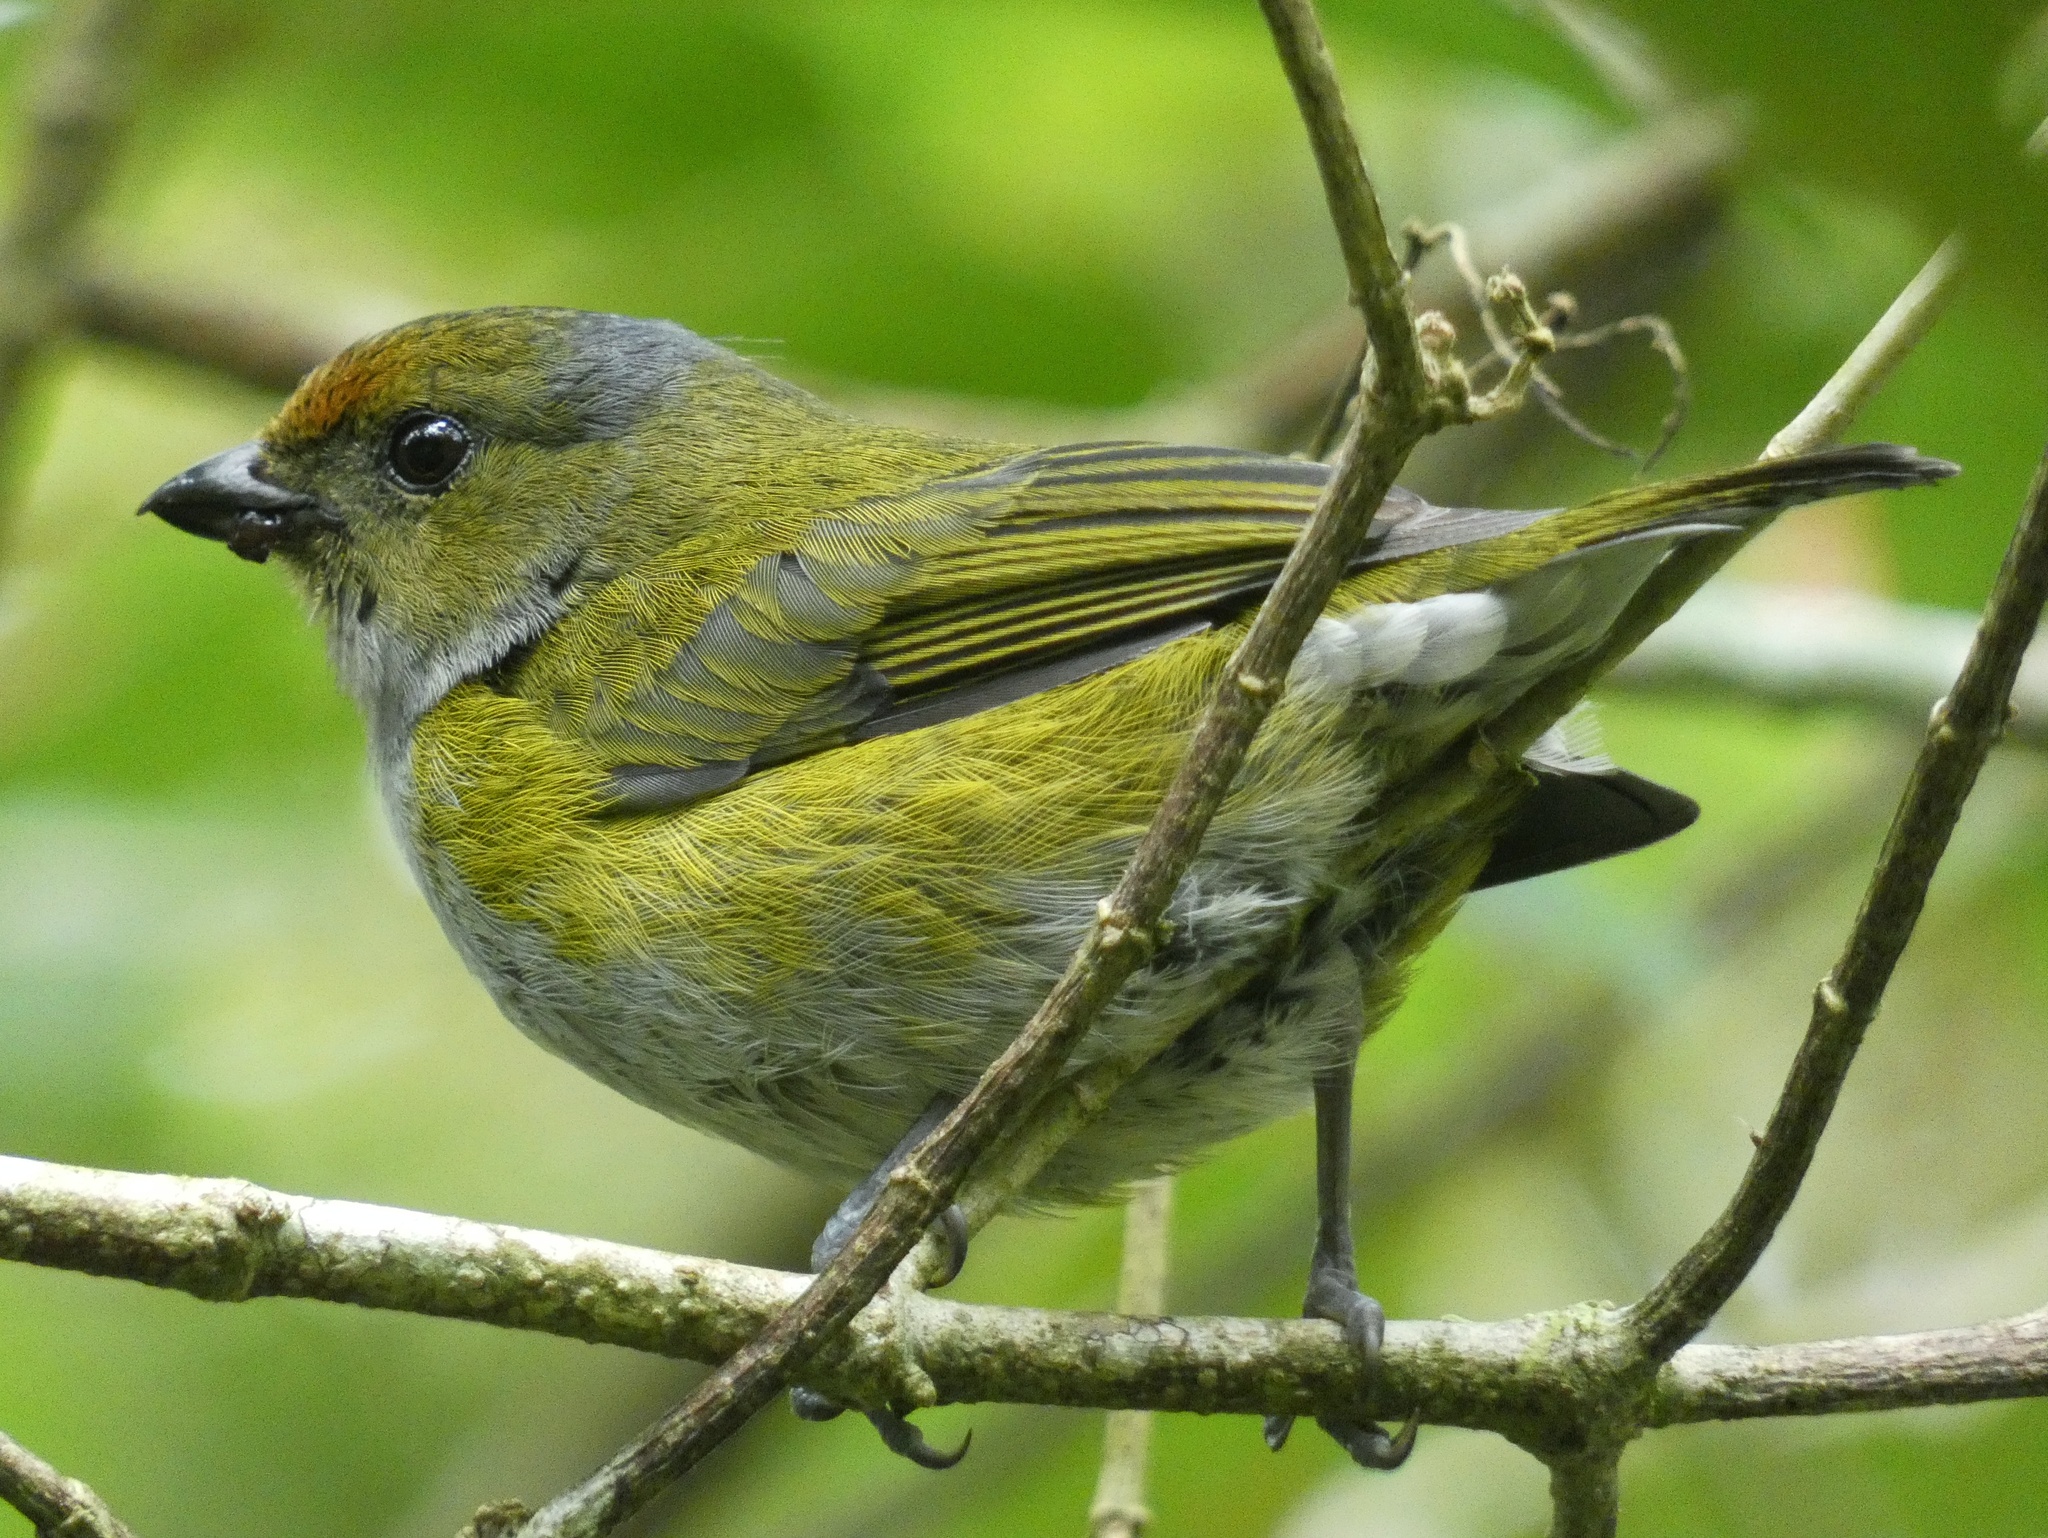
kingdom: Animalia
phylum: Chordata
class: Aves
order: Passeriformes
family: Fringillidae
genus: Euphonia
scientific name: Euphonia anneae
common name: Tawny-capped euphonia
